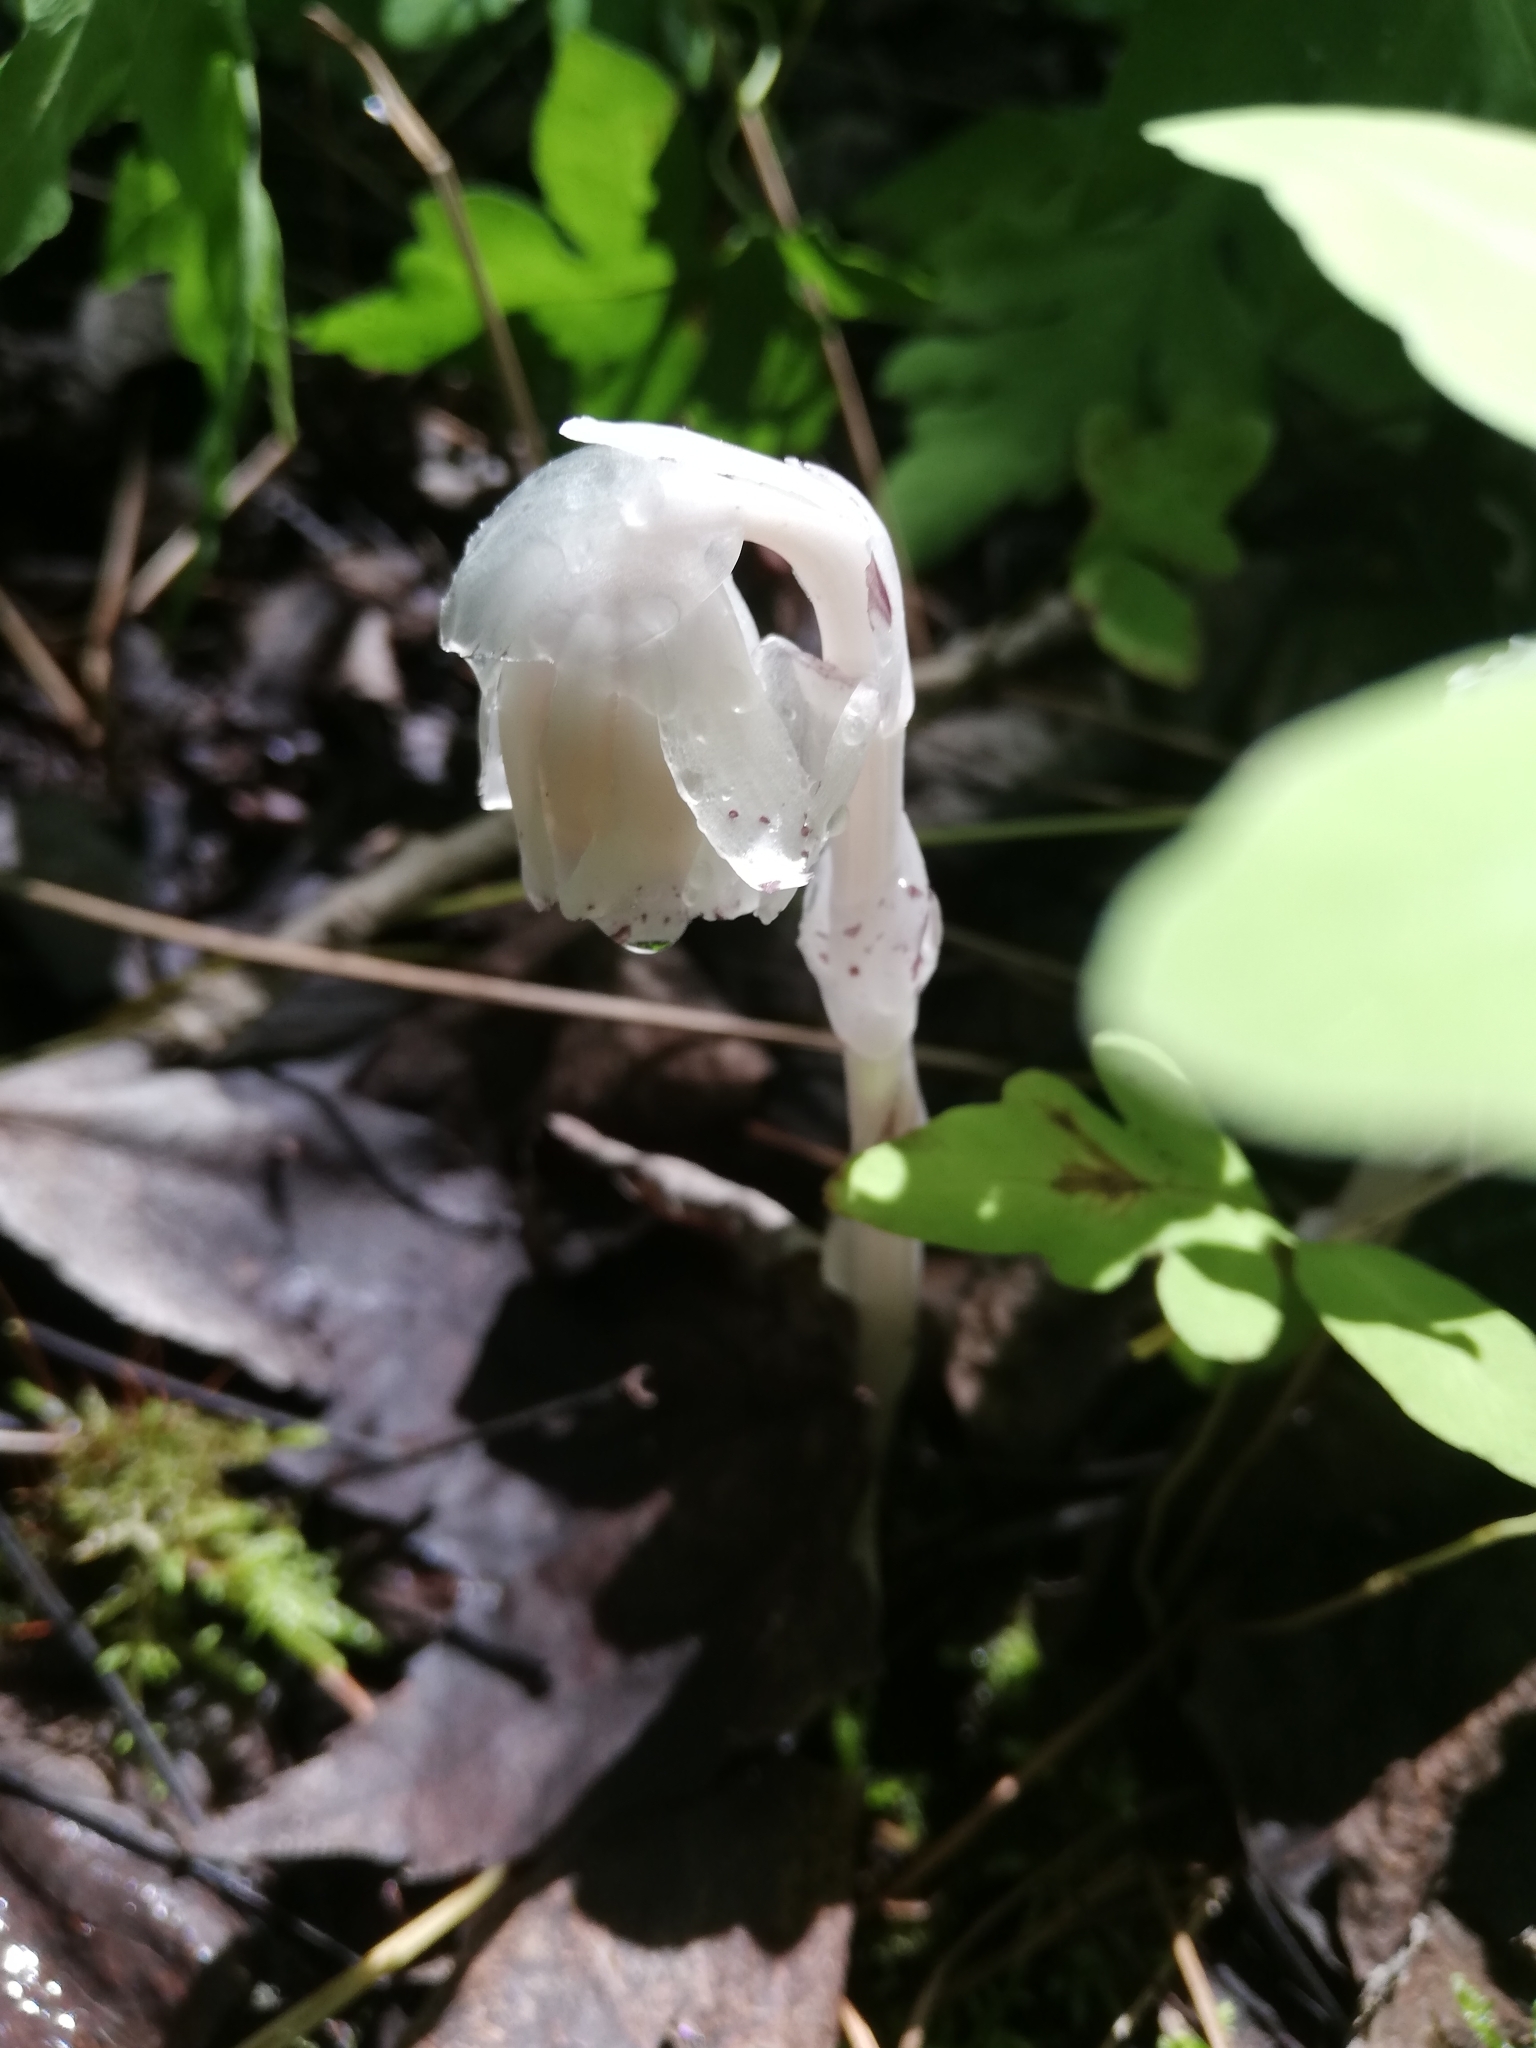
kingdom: Plantae
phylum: Tracheophyta
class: Magnoliopsida
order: Ericales
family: Ericaceae
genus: Monotropa
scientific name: Monotropa uniflora
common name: Convulsion root
